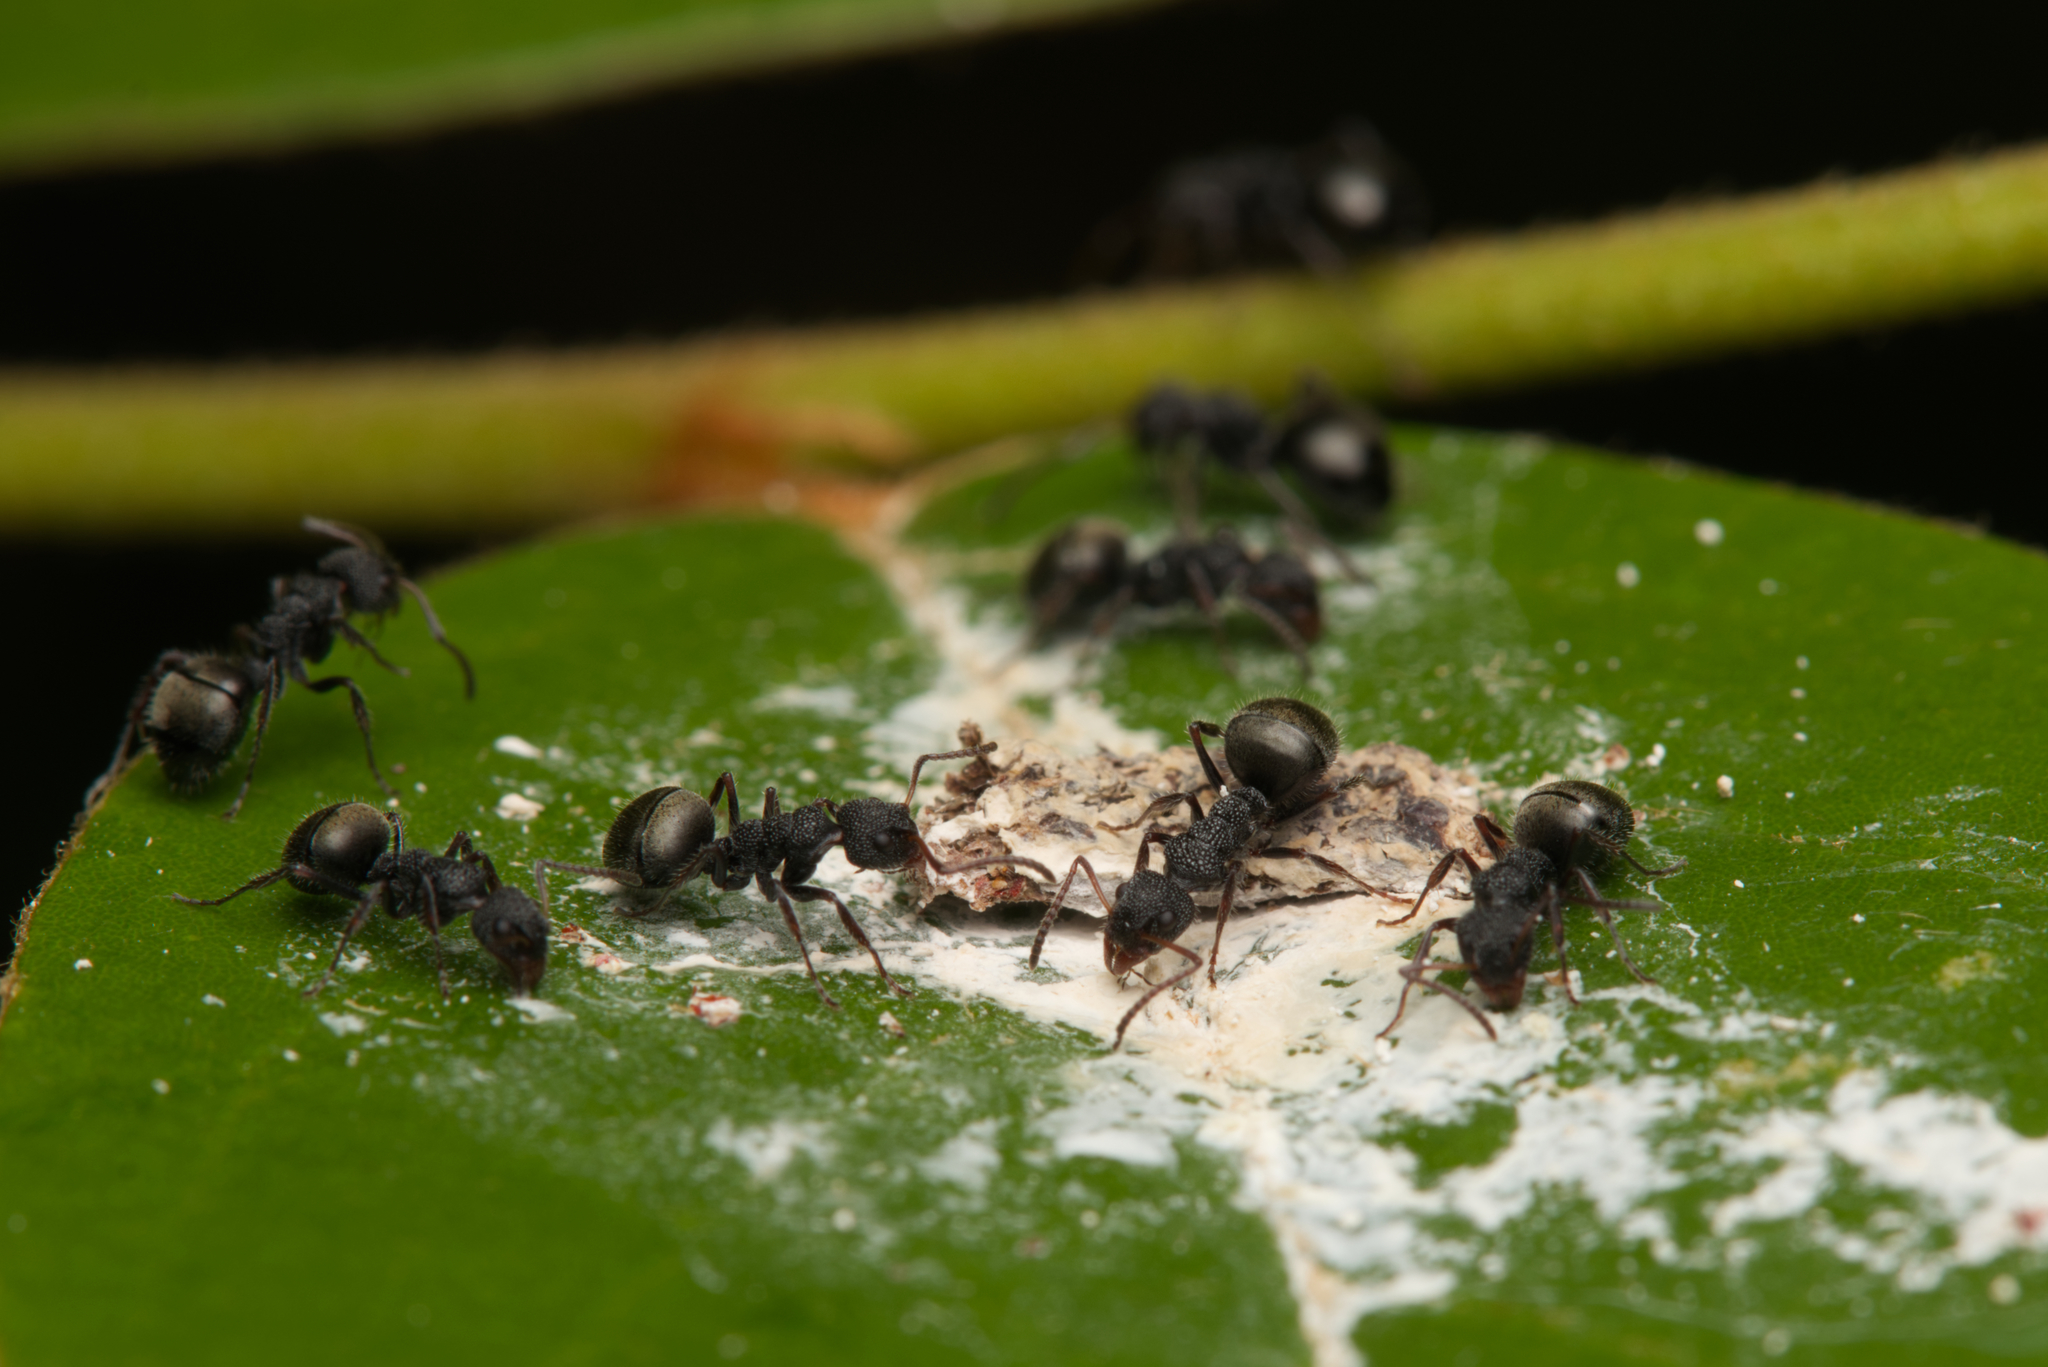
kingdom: Animalia
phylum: Arthropoda
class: Insecta
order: Hymenoptera
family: Formicidae
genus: Dolichoderus
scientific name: Dolichoderus scrobiculatus
